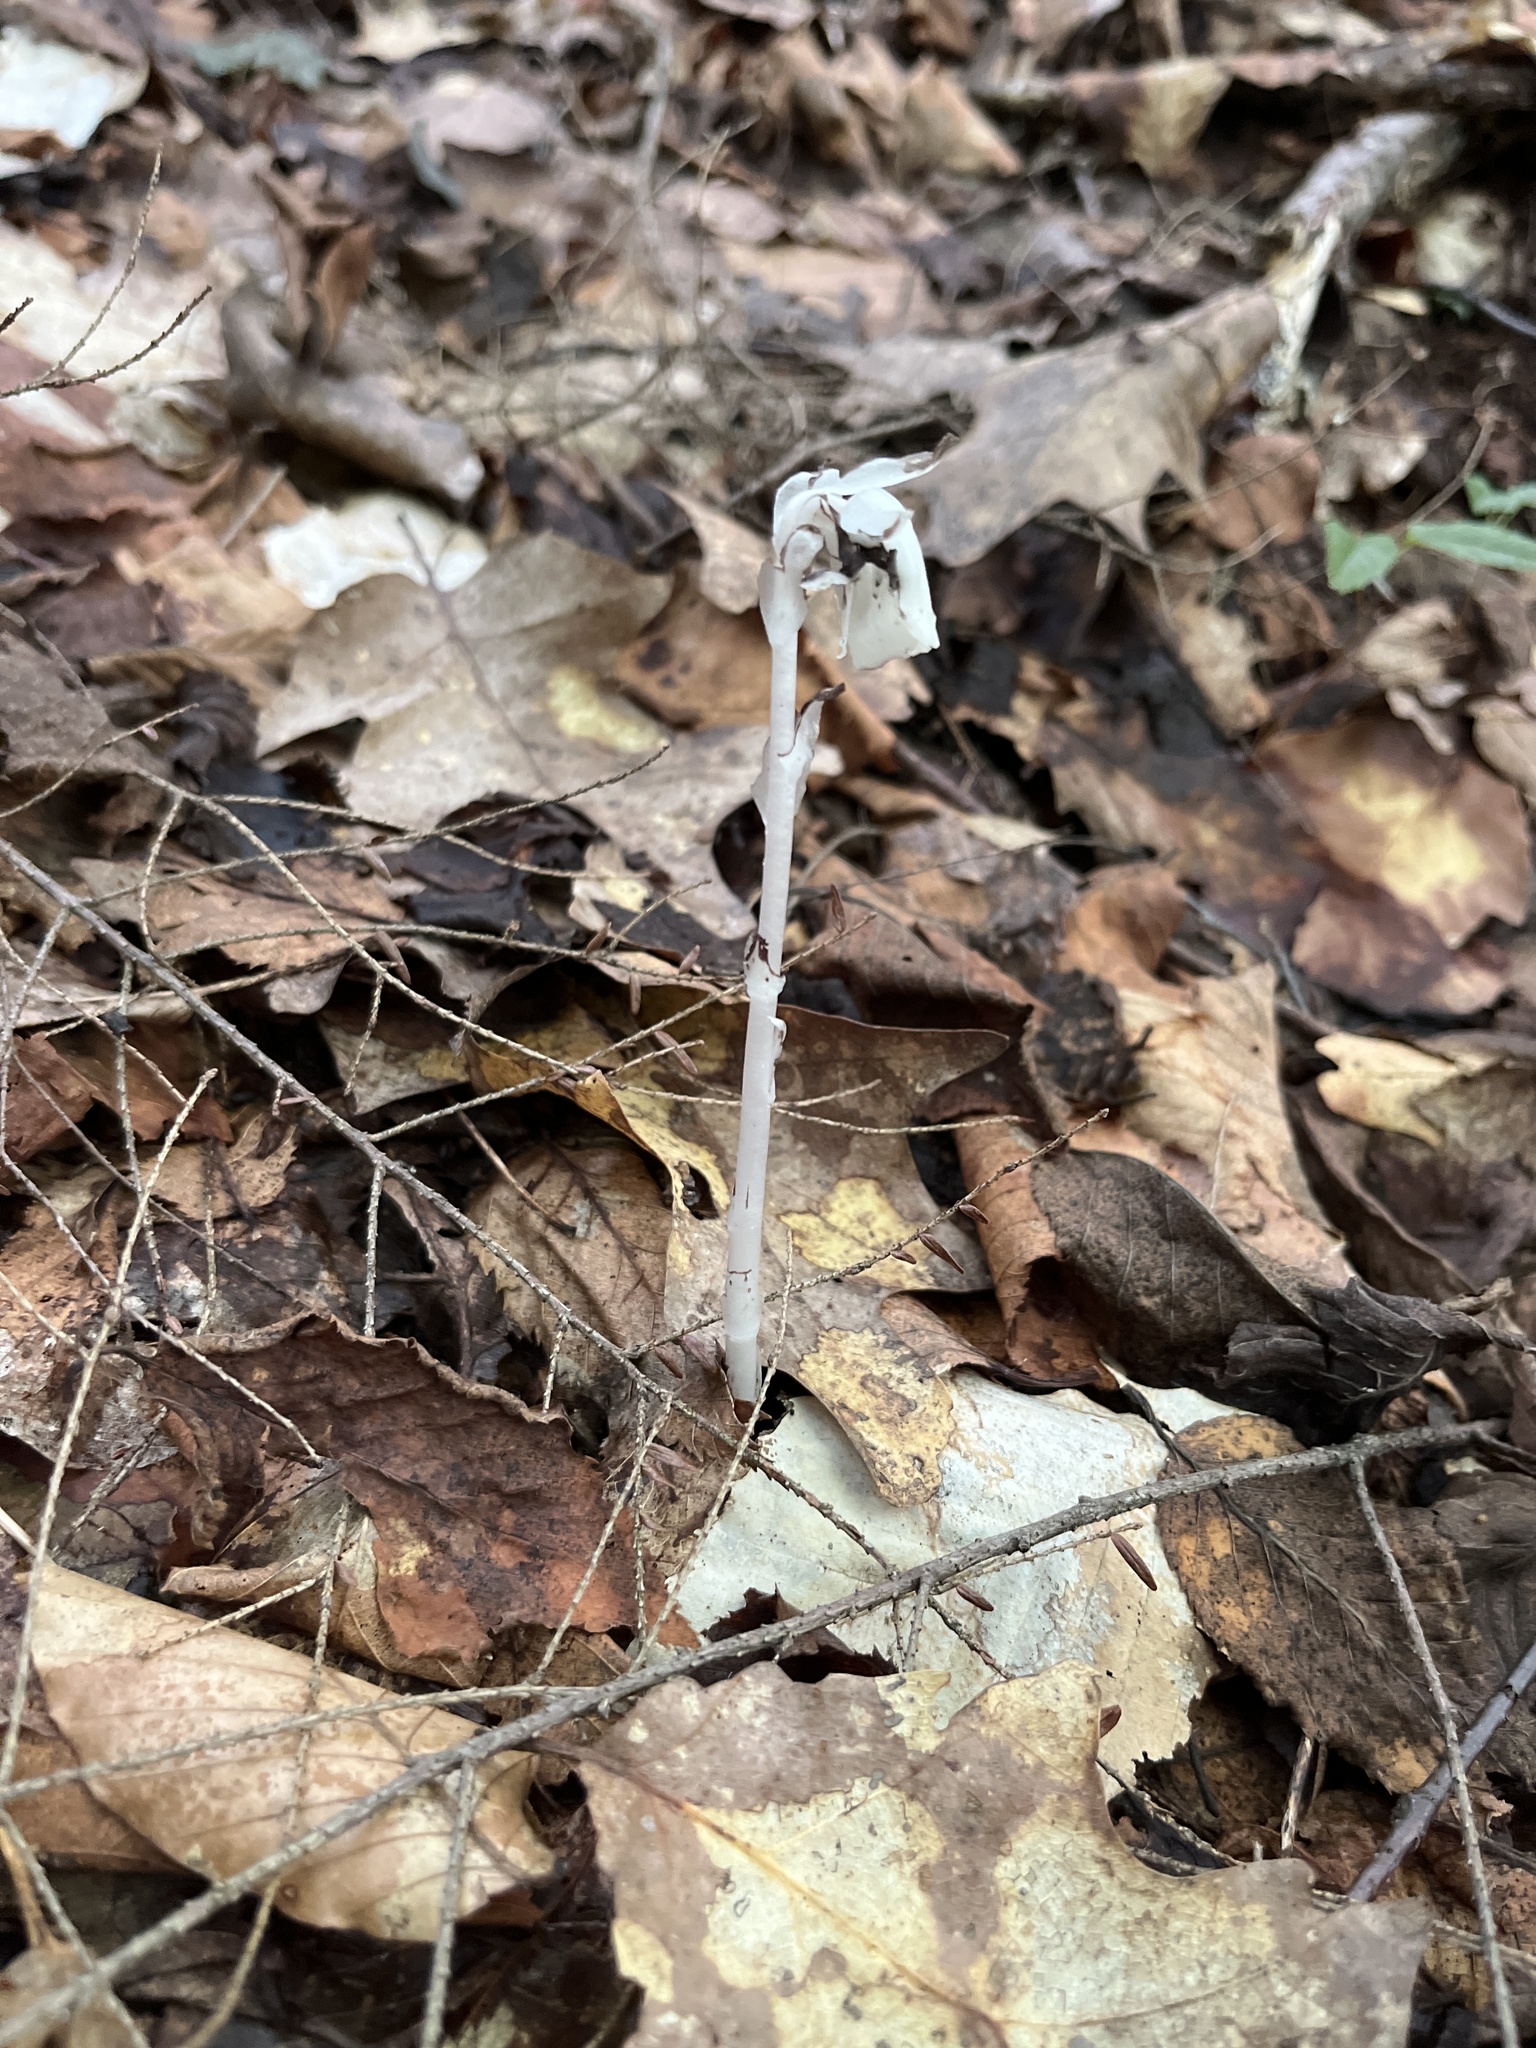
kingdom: Plantae
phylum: Tracheophyta
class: Magnoliopsida
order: Ericales
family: Ericaceae
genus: Monotropa
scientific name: Monotropa uniflora
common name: Convulsion root
